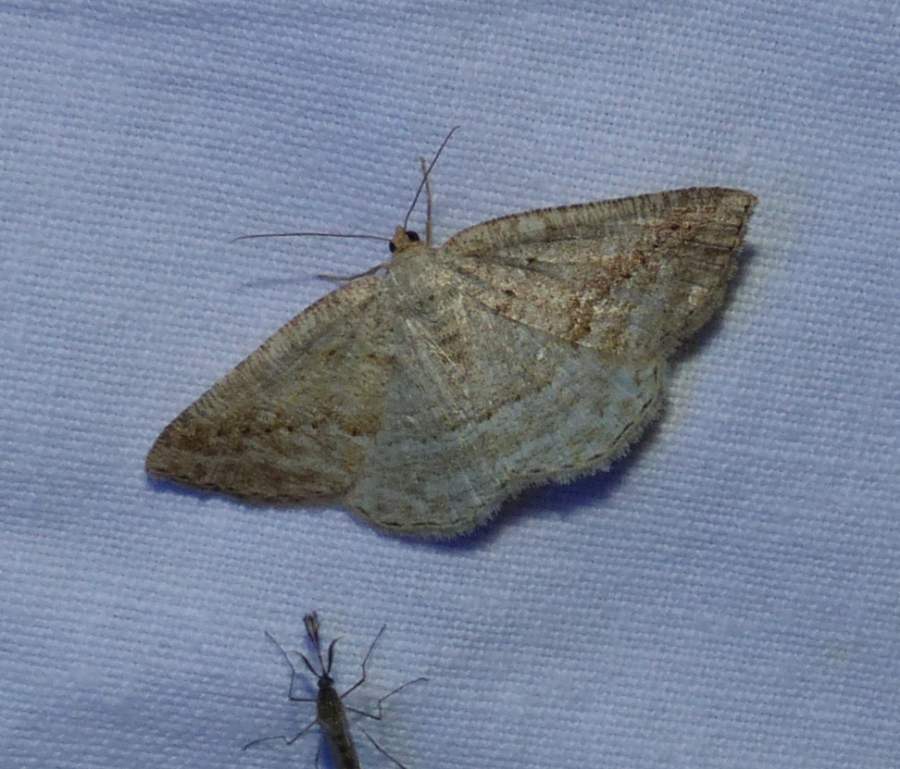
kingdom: Animalia
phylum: Arthropoda
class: Insecta
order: Lepidoptera
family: Geometridae
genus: Tacparia
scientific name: Tacparia detersata
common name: Pale alder moth
